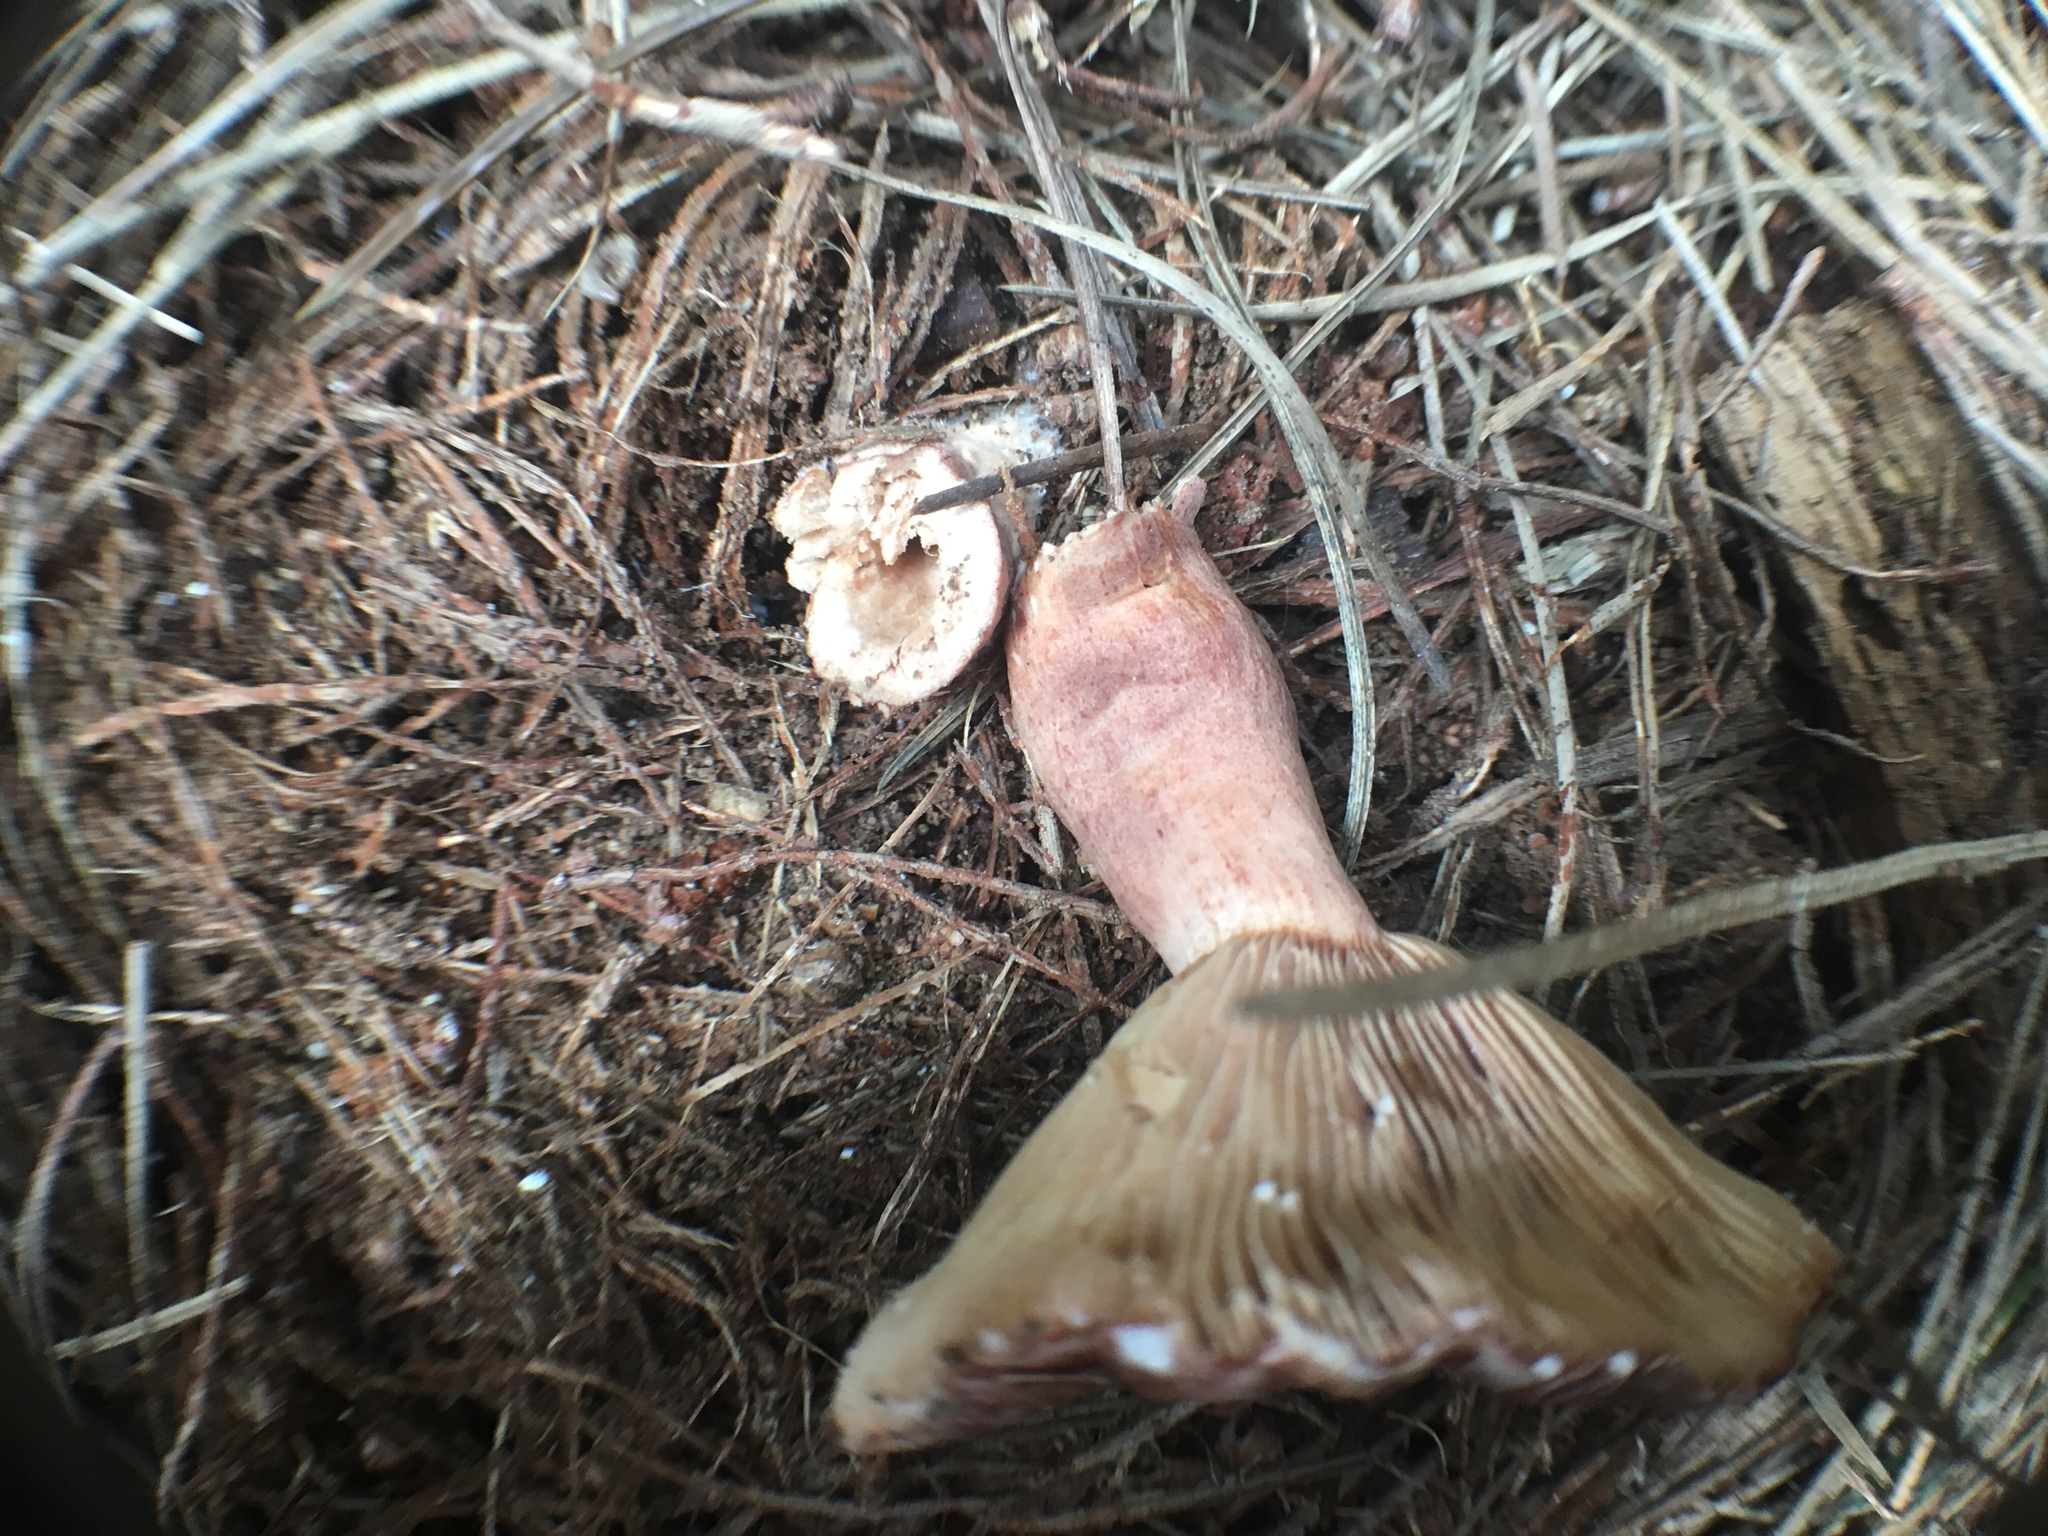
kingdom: Fungi
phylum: Basidiomycota
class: Agaricomycetes
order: Russulales
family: Russulaceae
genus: Lactarius
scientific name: Lactarius rufus
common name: Rufous milk-cap
